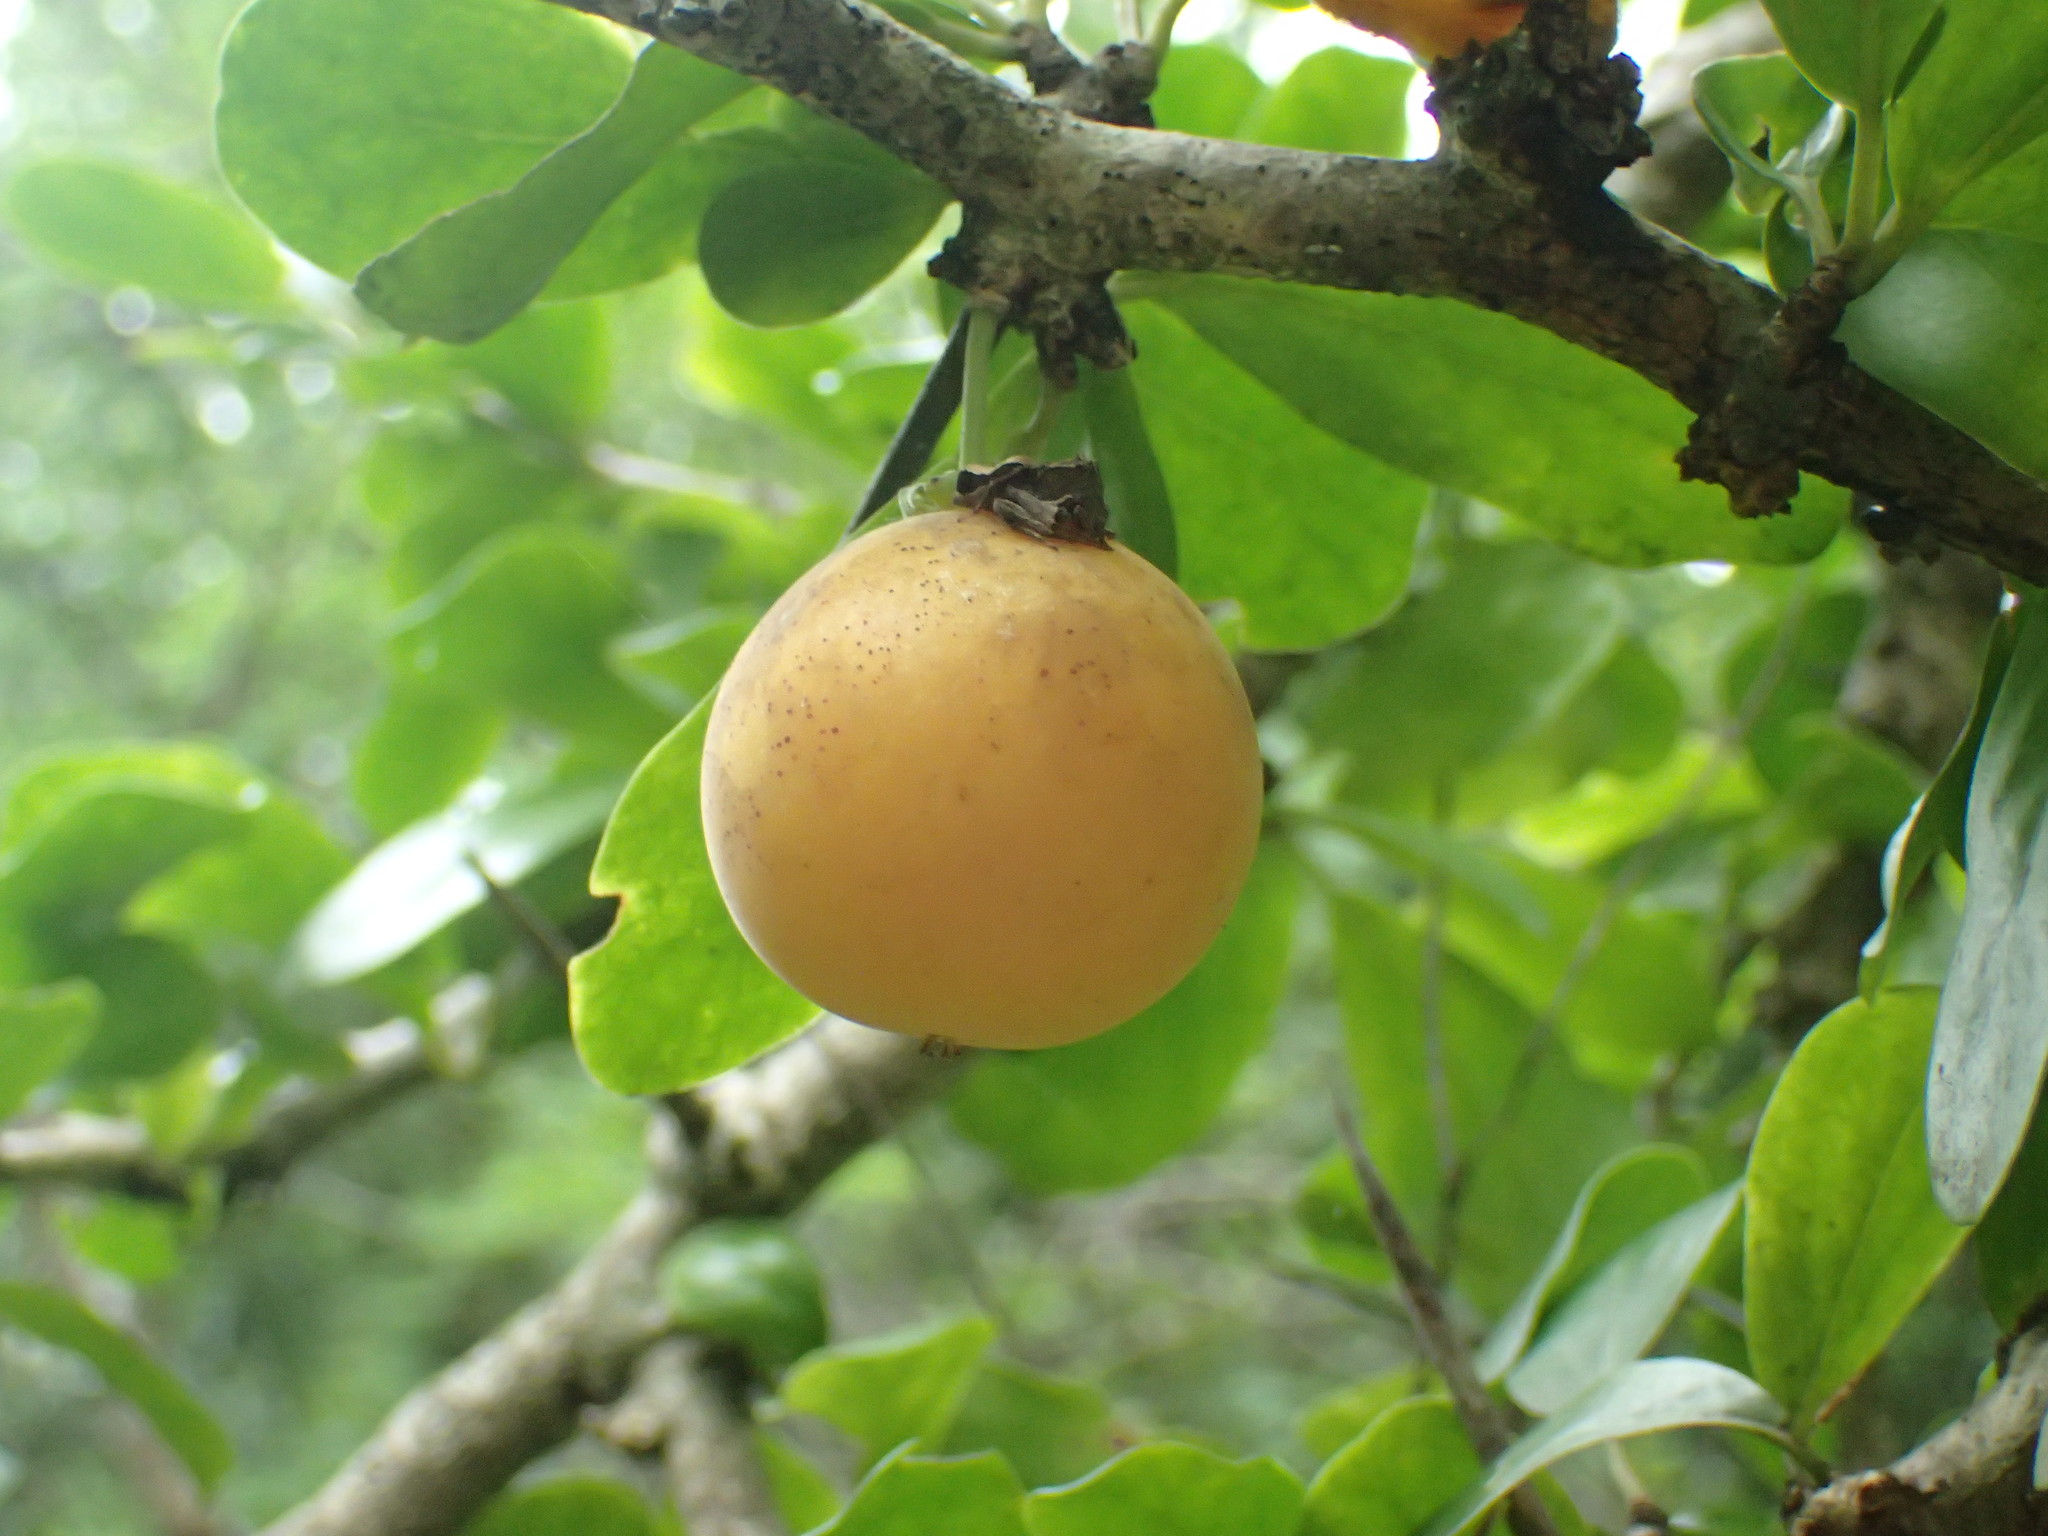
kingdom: Plantae
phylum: Tracheophyta
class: Magnoliopsida
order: Malpighiales
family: Salicaceae
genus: Dovyalis
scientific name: Dovyalis caffra
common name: Kei-apple
